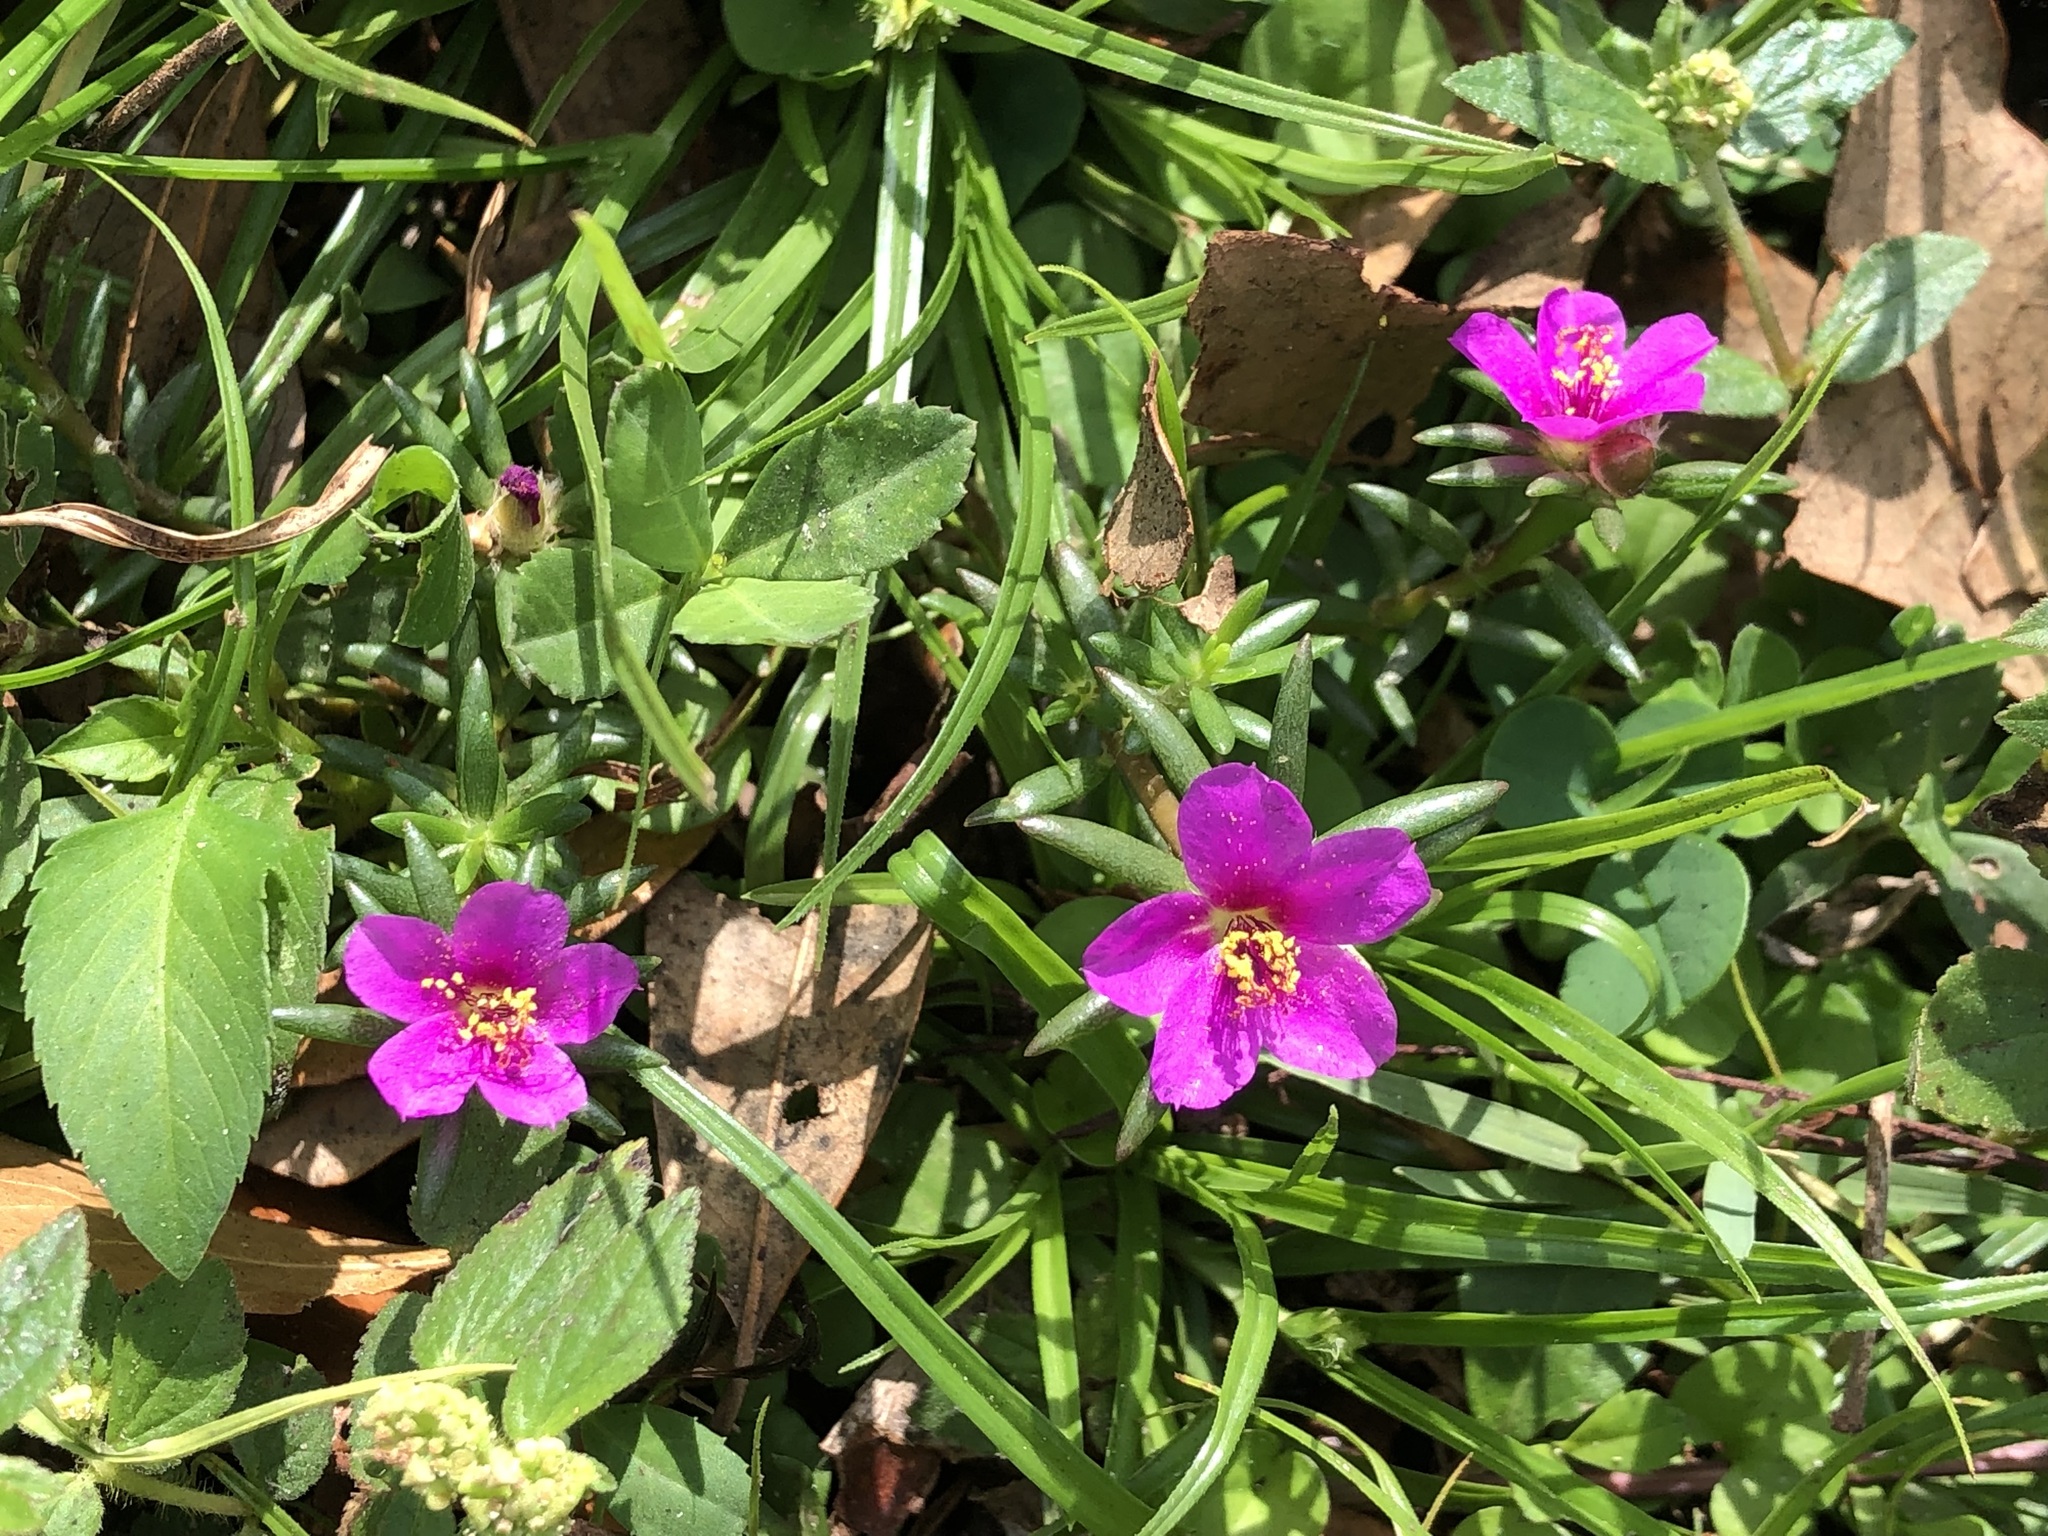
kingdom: Plantae
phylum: Tracheophyta
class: Magnoliopsida
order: Caryophyllales
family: Portulacaceae
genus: Portulaca
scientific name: Portulaca pilosa
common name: Kiss me quick
